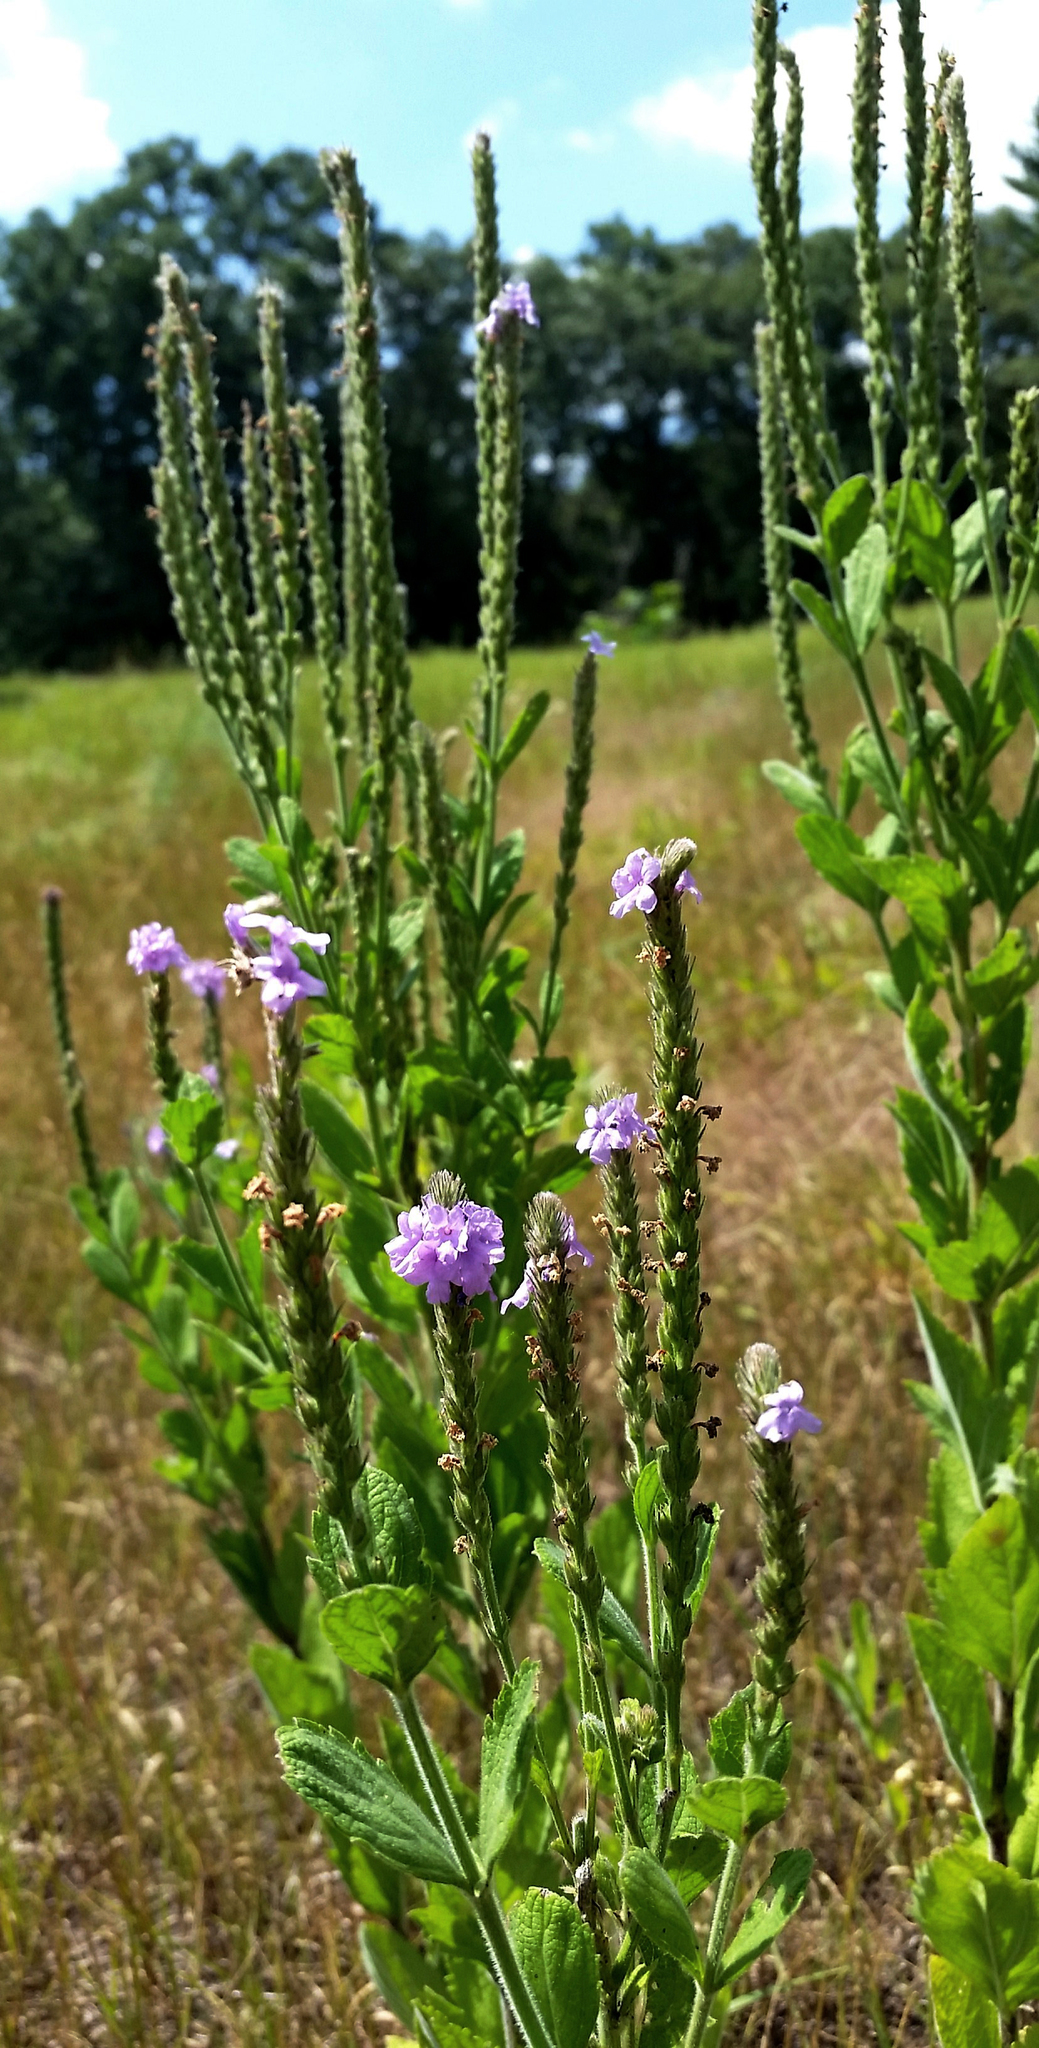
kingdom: Plantae
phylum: Tracheophyta
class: Magnoliopsida
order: Lamiales
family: Verbenaceae
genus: Verbena
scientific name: Verbena stricta
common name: Hoary vervain
